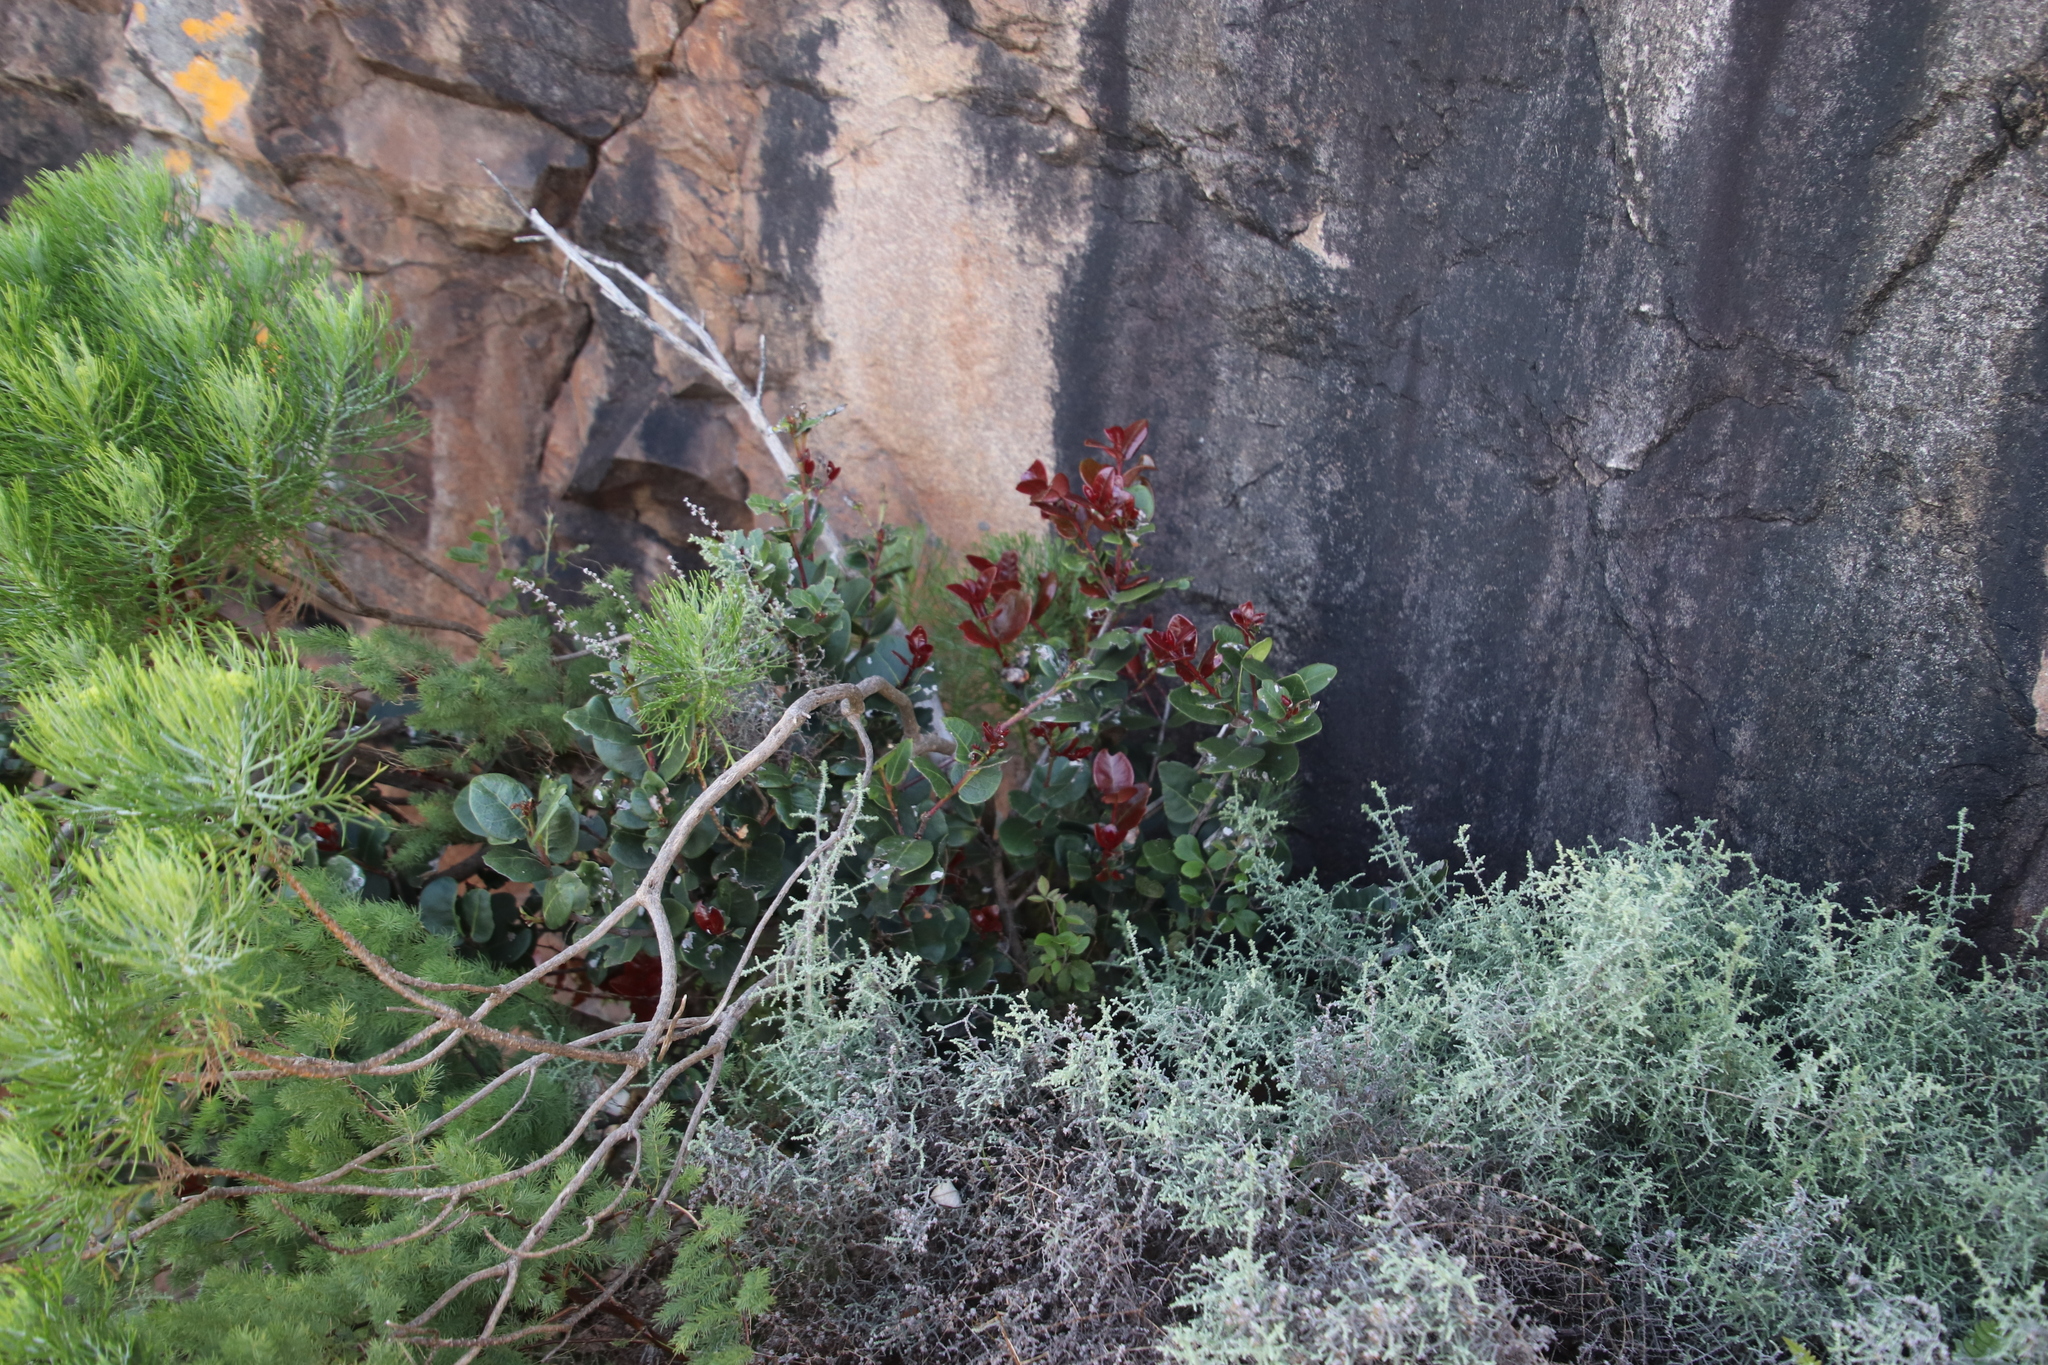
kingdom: Plantae
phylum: Tracheophyta
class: Magnoliopsida
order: Celastrales
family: Celastraceae
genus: Maurocenia
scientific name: Maurocenia frangula
